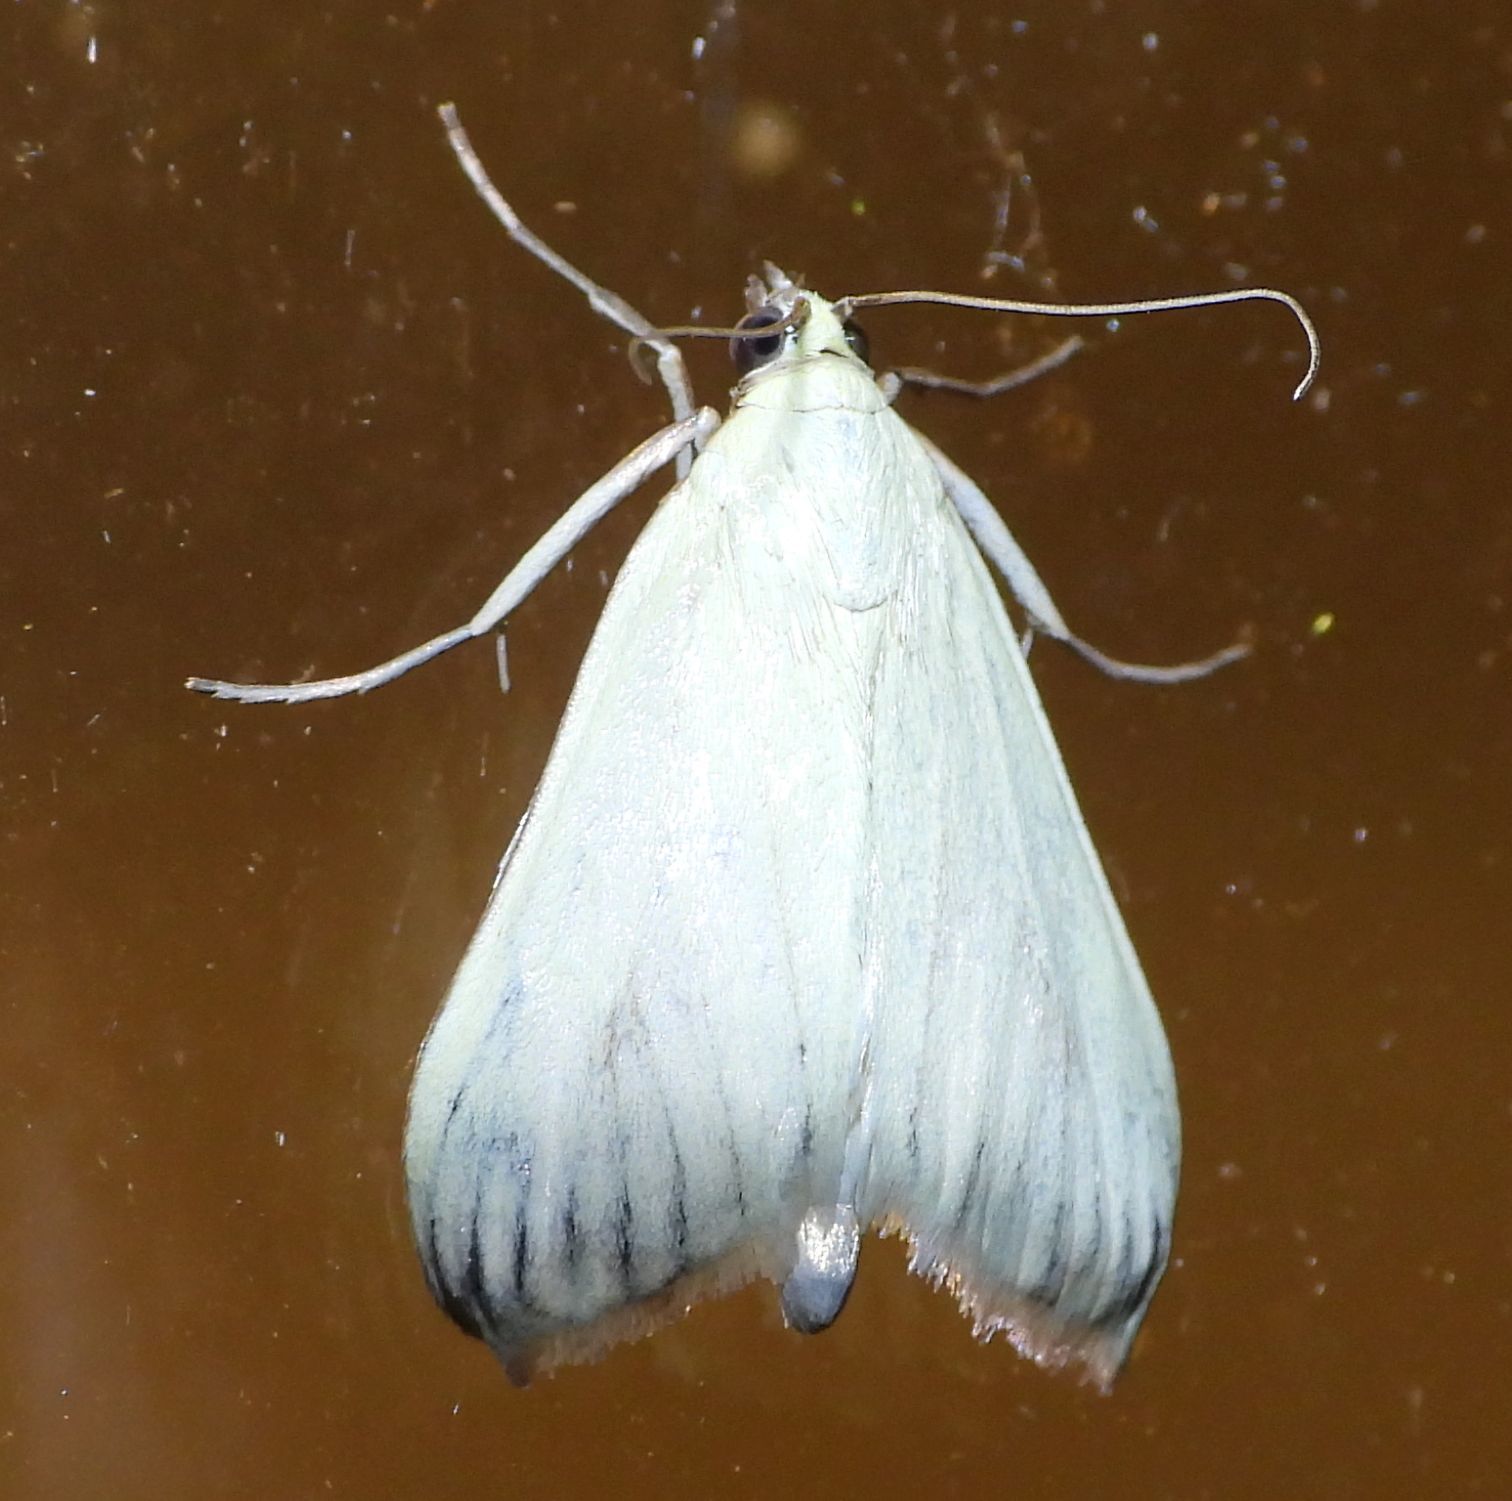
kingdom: Animalia
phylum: Arthropoda
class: Insecta
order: Lepidoptera
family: Crambidae
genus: Sitochroa
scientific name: Sitochroa palealis
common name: Greenish-yellow sitochroa moth
